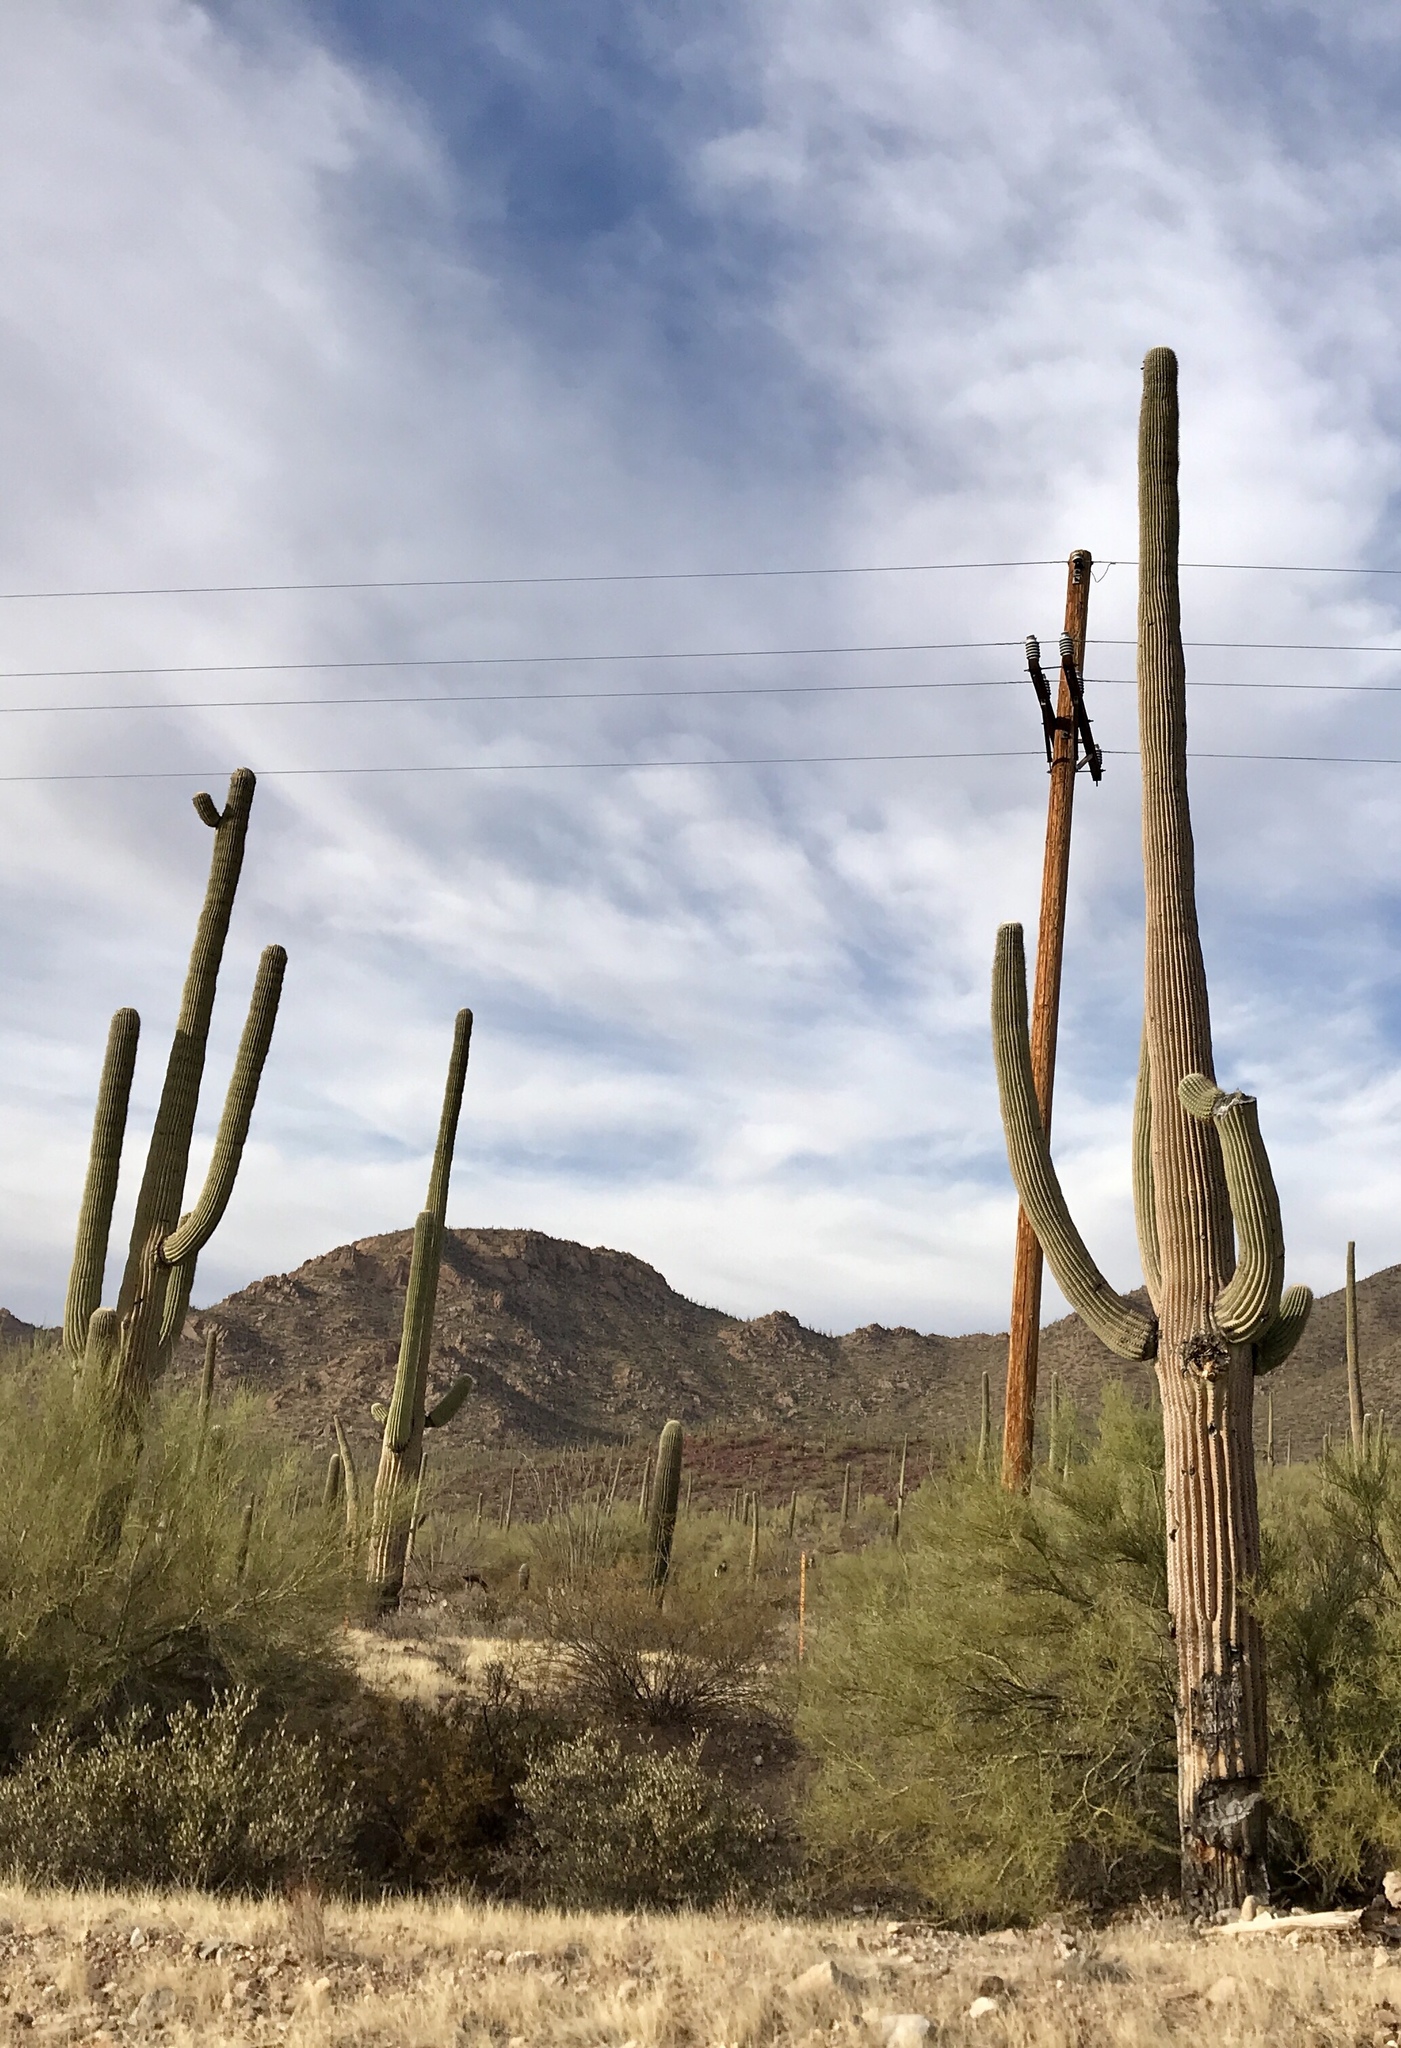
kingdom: Plantae
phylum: Tracheophyta
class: Magnoliopsida
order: Caryophyllales
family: Cactaceae
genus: Carnegiea
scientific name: Carnegiea gigantea
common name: Saguaro
